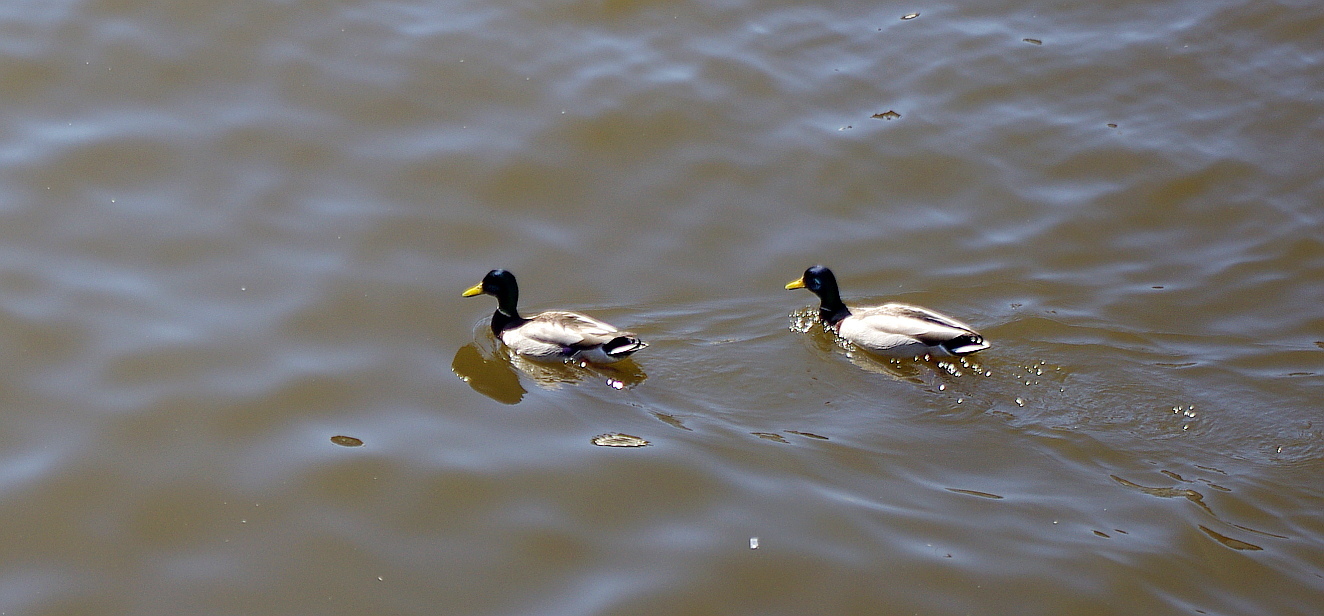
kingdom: Animalia
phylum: Chordata
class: Aves
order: Anseriformes
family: Anatidae
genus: Anas
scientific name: Anas platyrhynchos
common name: Mallard
